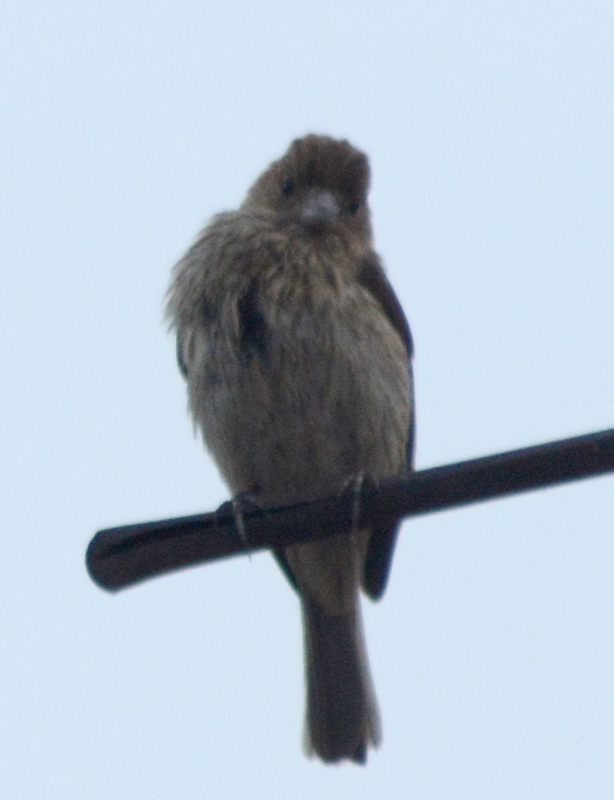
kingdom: Animalia
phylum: Chordata
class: Aves
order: Passeriformes
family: Fringillidae
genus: Haemorhous
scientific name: Haemorhous mexicanus
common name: House finch
